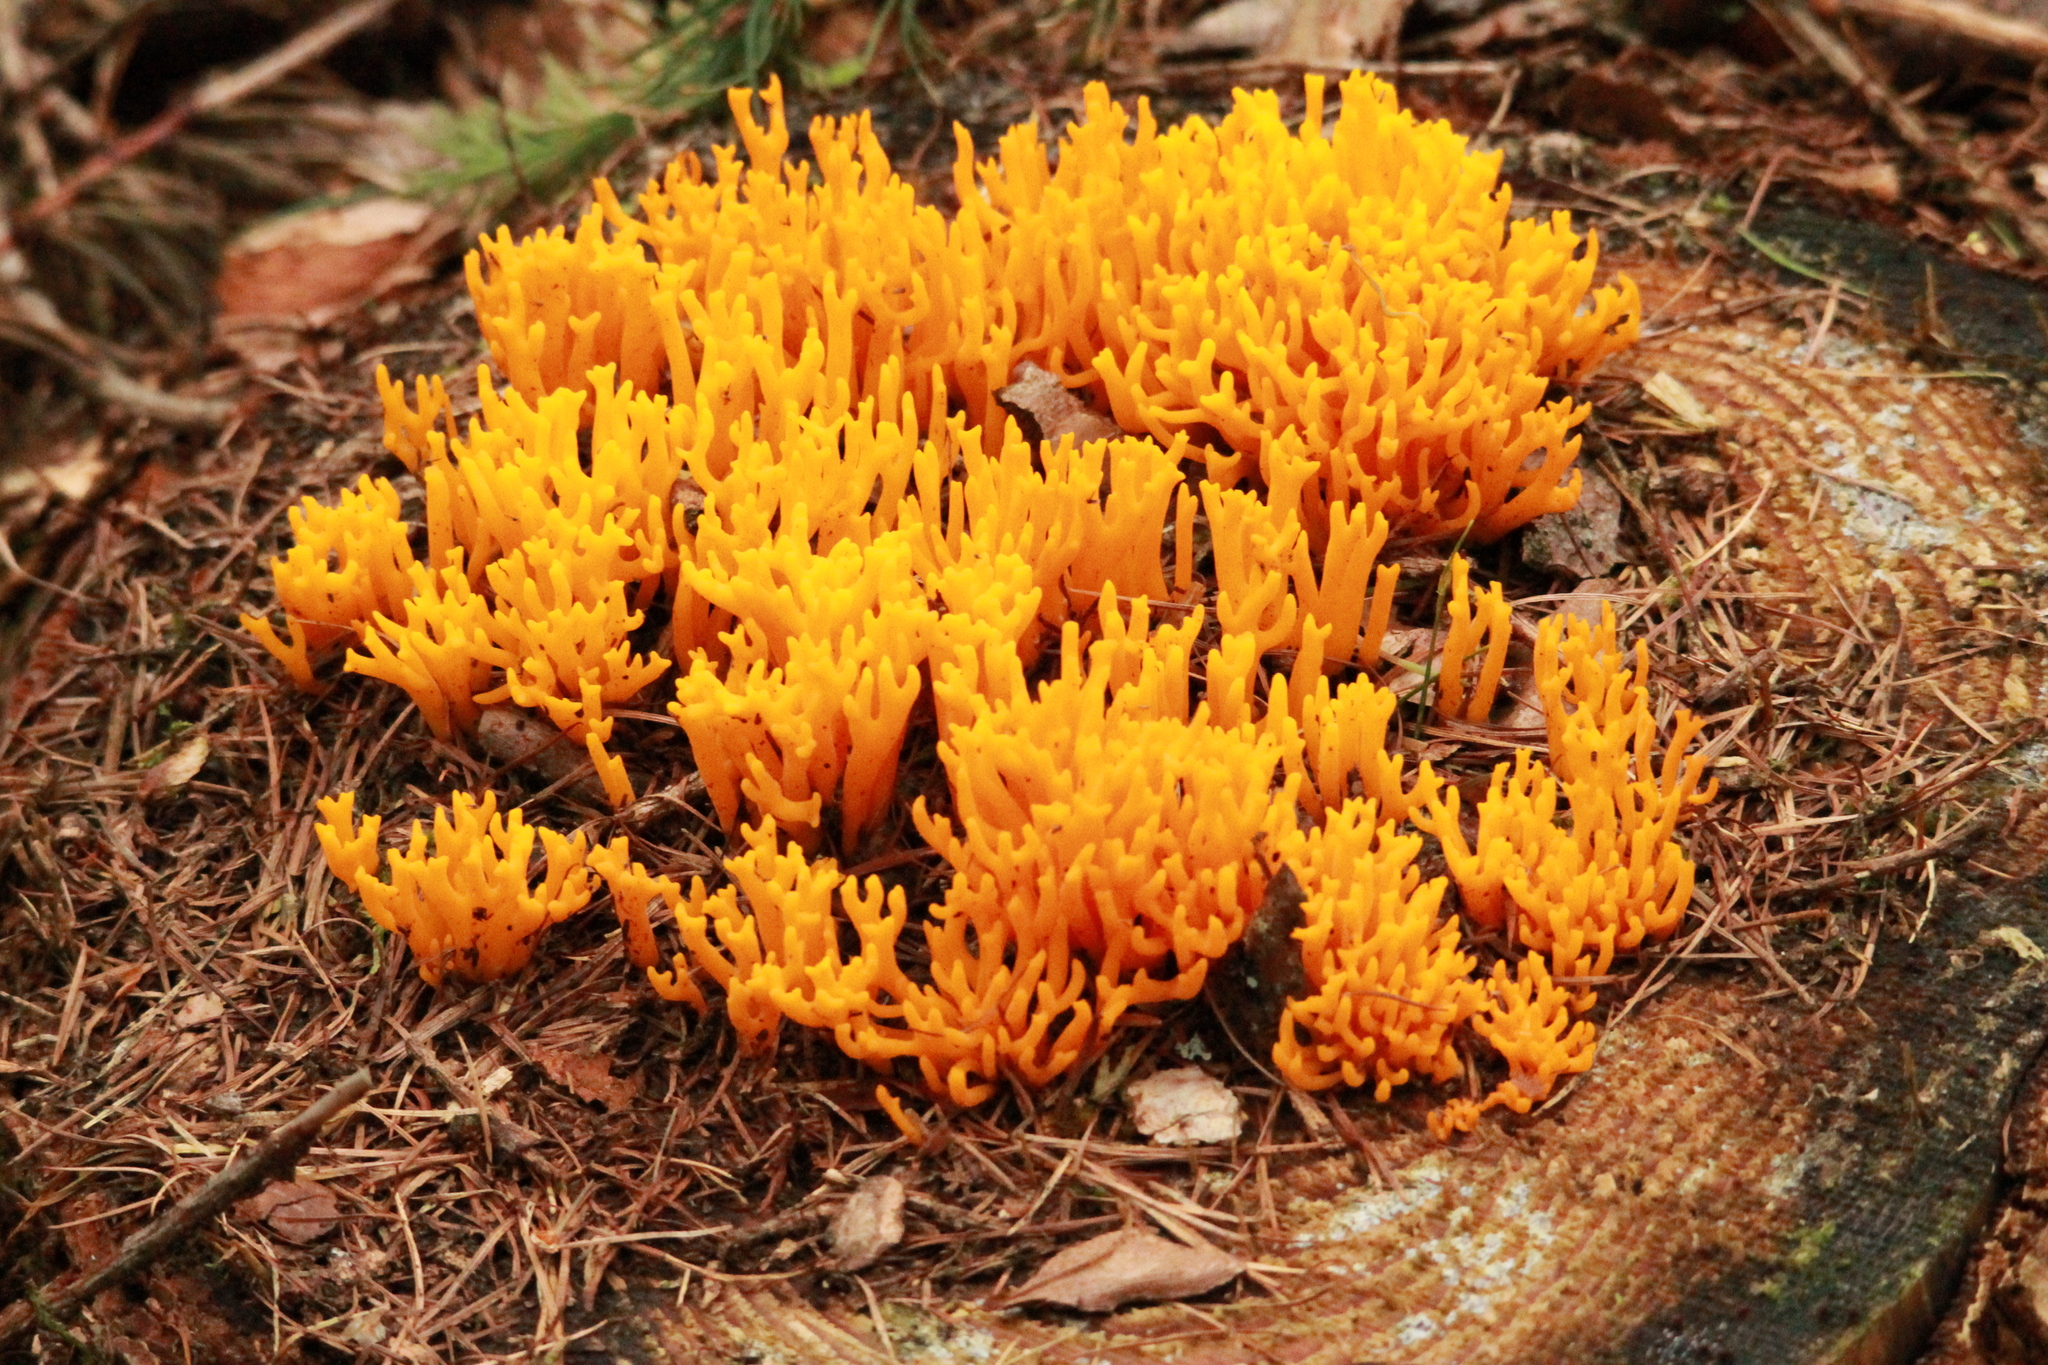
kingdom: Fungi
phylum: Basidiomycota
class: Dacrymycetes
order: Dacrymycetales
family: Dacrymycetaceae
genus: Calocera
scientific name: Calocera viscosa
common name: Yellow stagshorn
